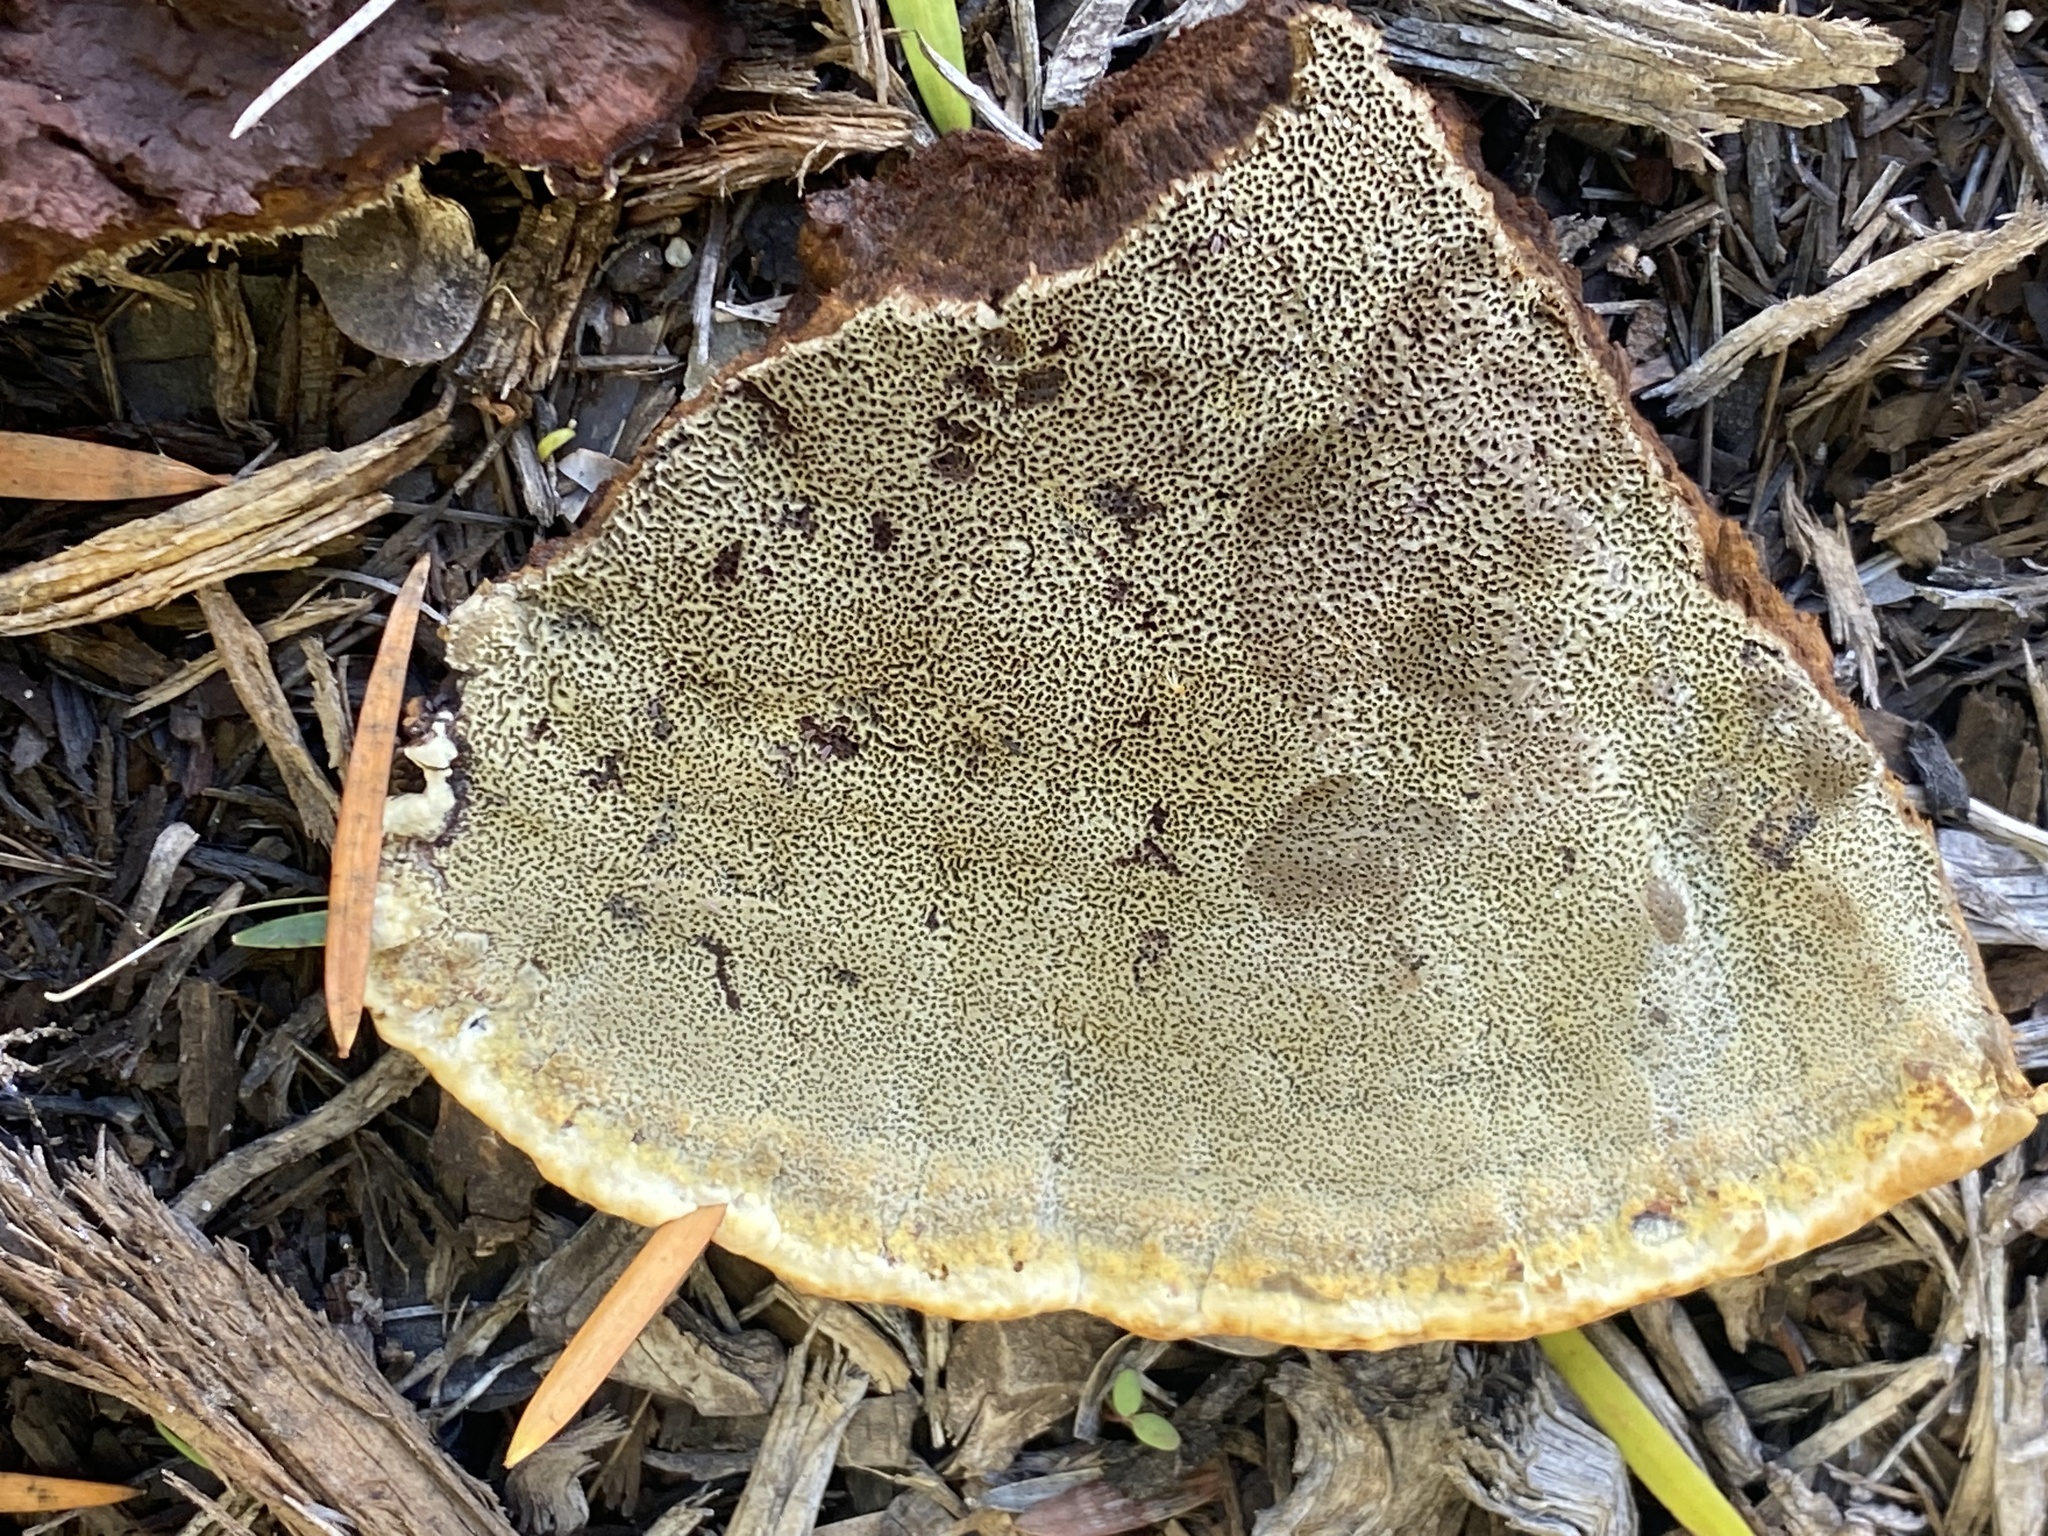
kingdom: Fungi
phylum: Basidiomycota
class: Agaricomycetes
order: Polyporales
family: Laetiporaceae
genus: Phaeolus
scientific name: Phaeolus schweinitzii
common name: Dyer's mazegill
